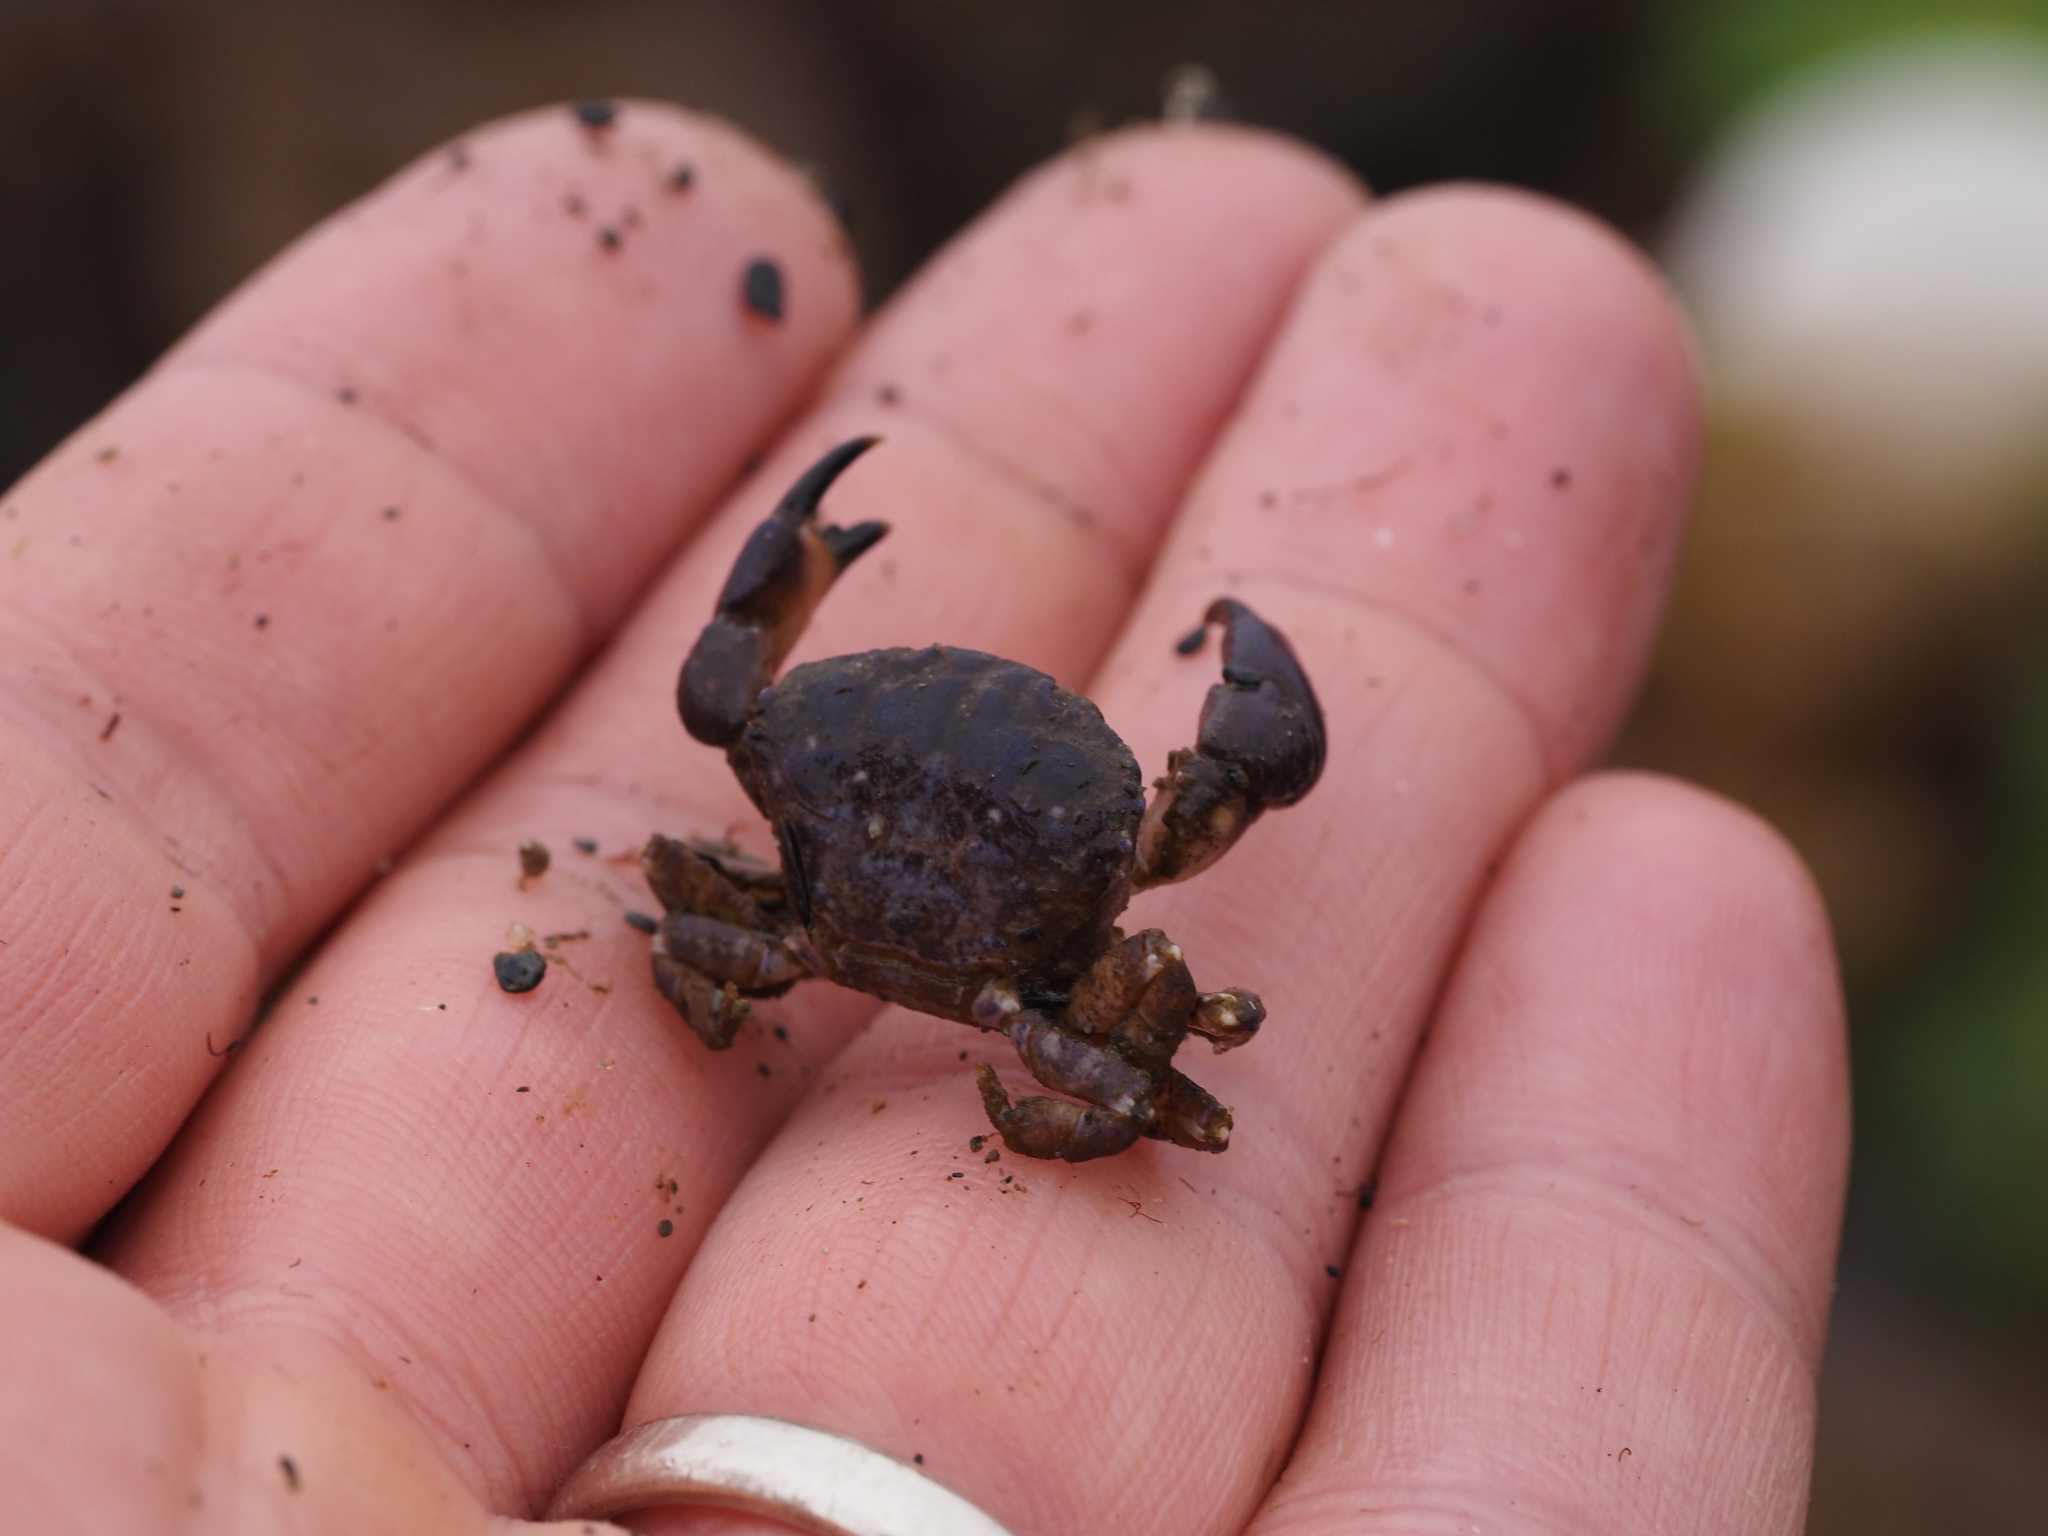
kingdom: Animalia
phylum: Arthropoda
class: Malacostraca
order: Decapoda
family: Panopeidae
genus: Lophopanopeus
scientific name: Lophopanopeus bellus
